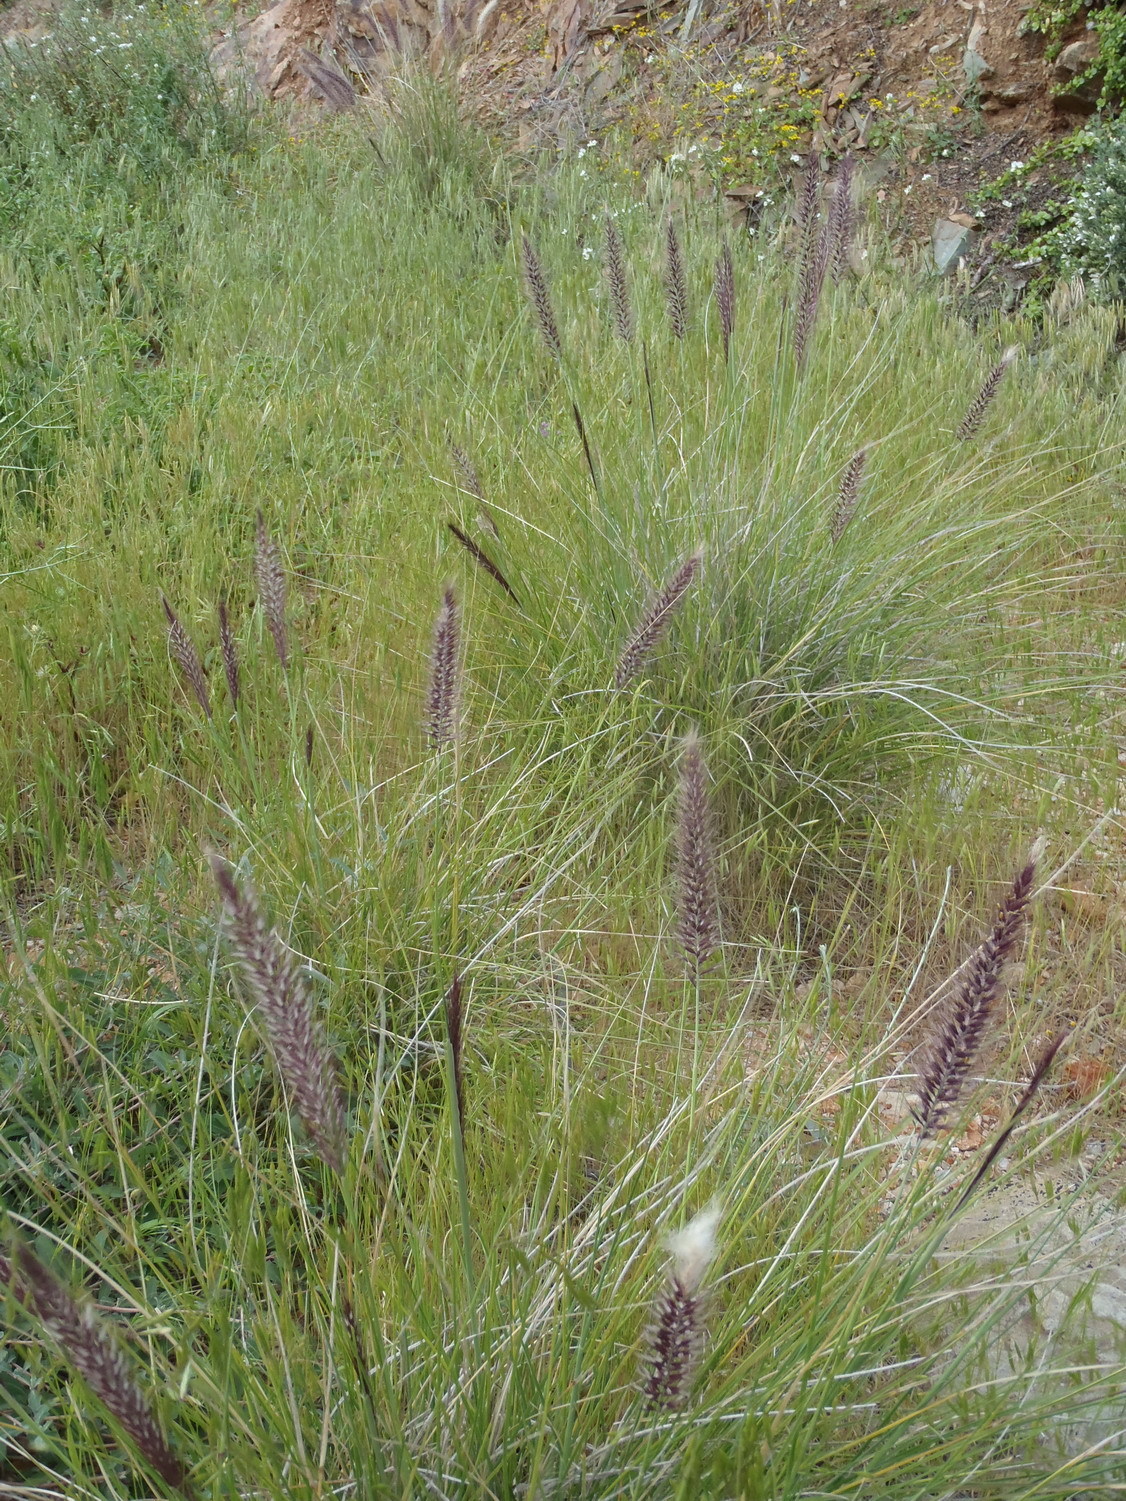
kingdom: Plantae
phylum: Tracheophyta
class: Liliopsida
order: Poales
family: Poaceae
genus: Cenchrus
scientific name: Cenchrus setaceus
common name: Crimson fountaingrass
